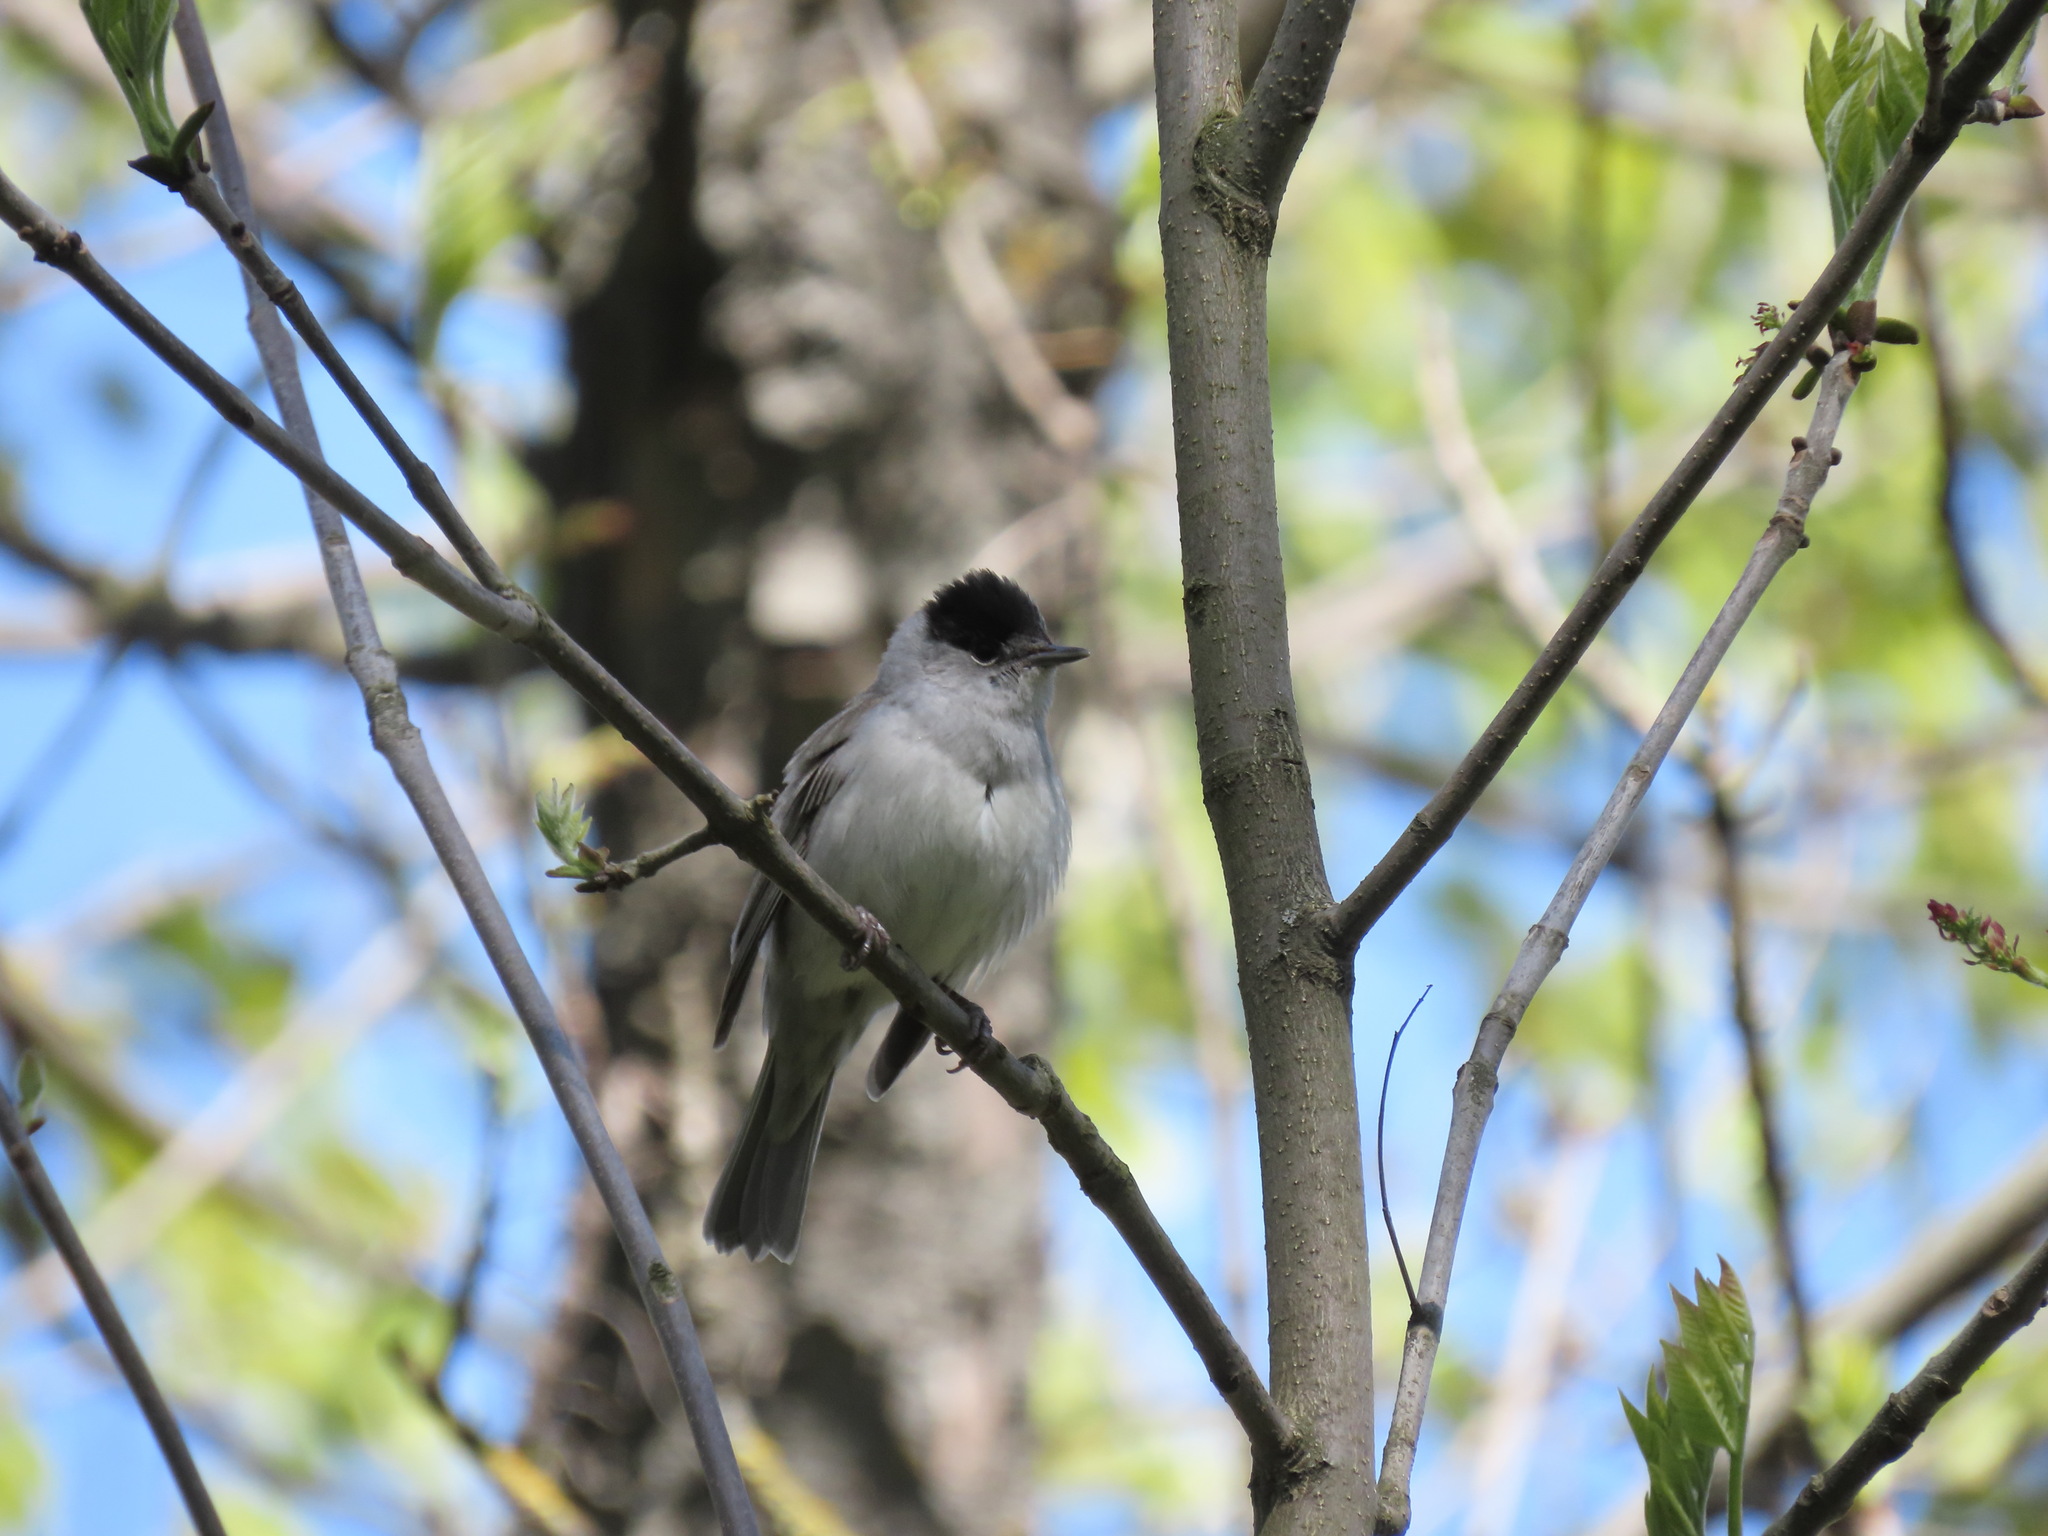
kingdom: Animalia
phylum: Chordata
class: Aves
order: Passeriformes
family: Sylviidae
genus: Sylvia
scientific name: Sylvia atricapilla
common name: Eurasian blackcap
